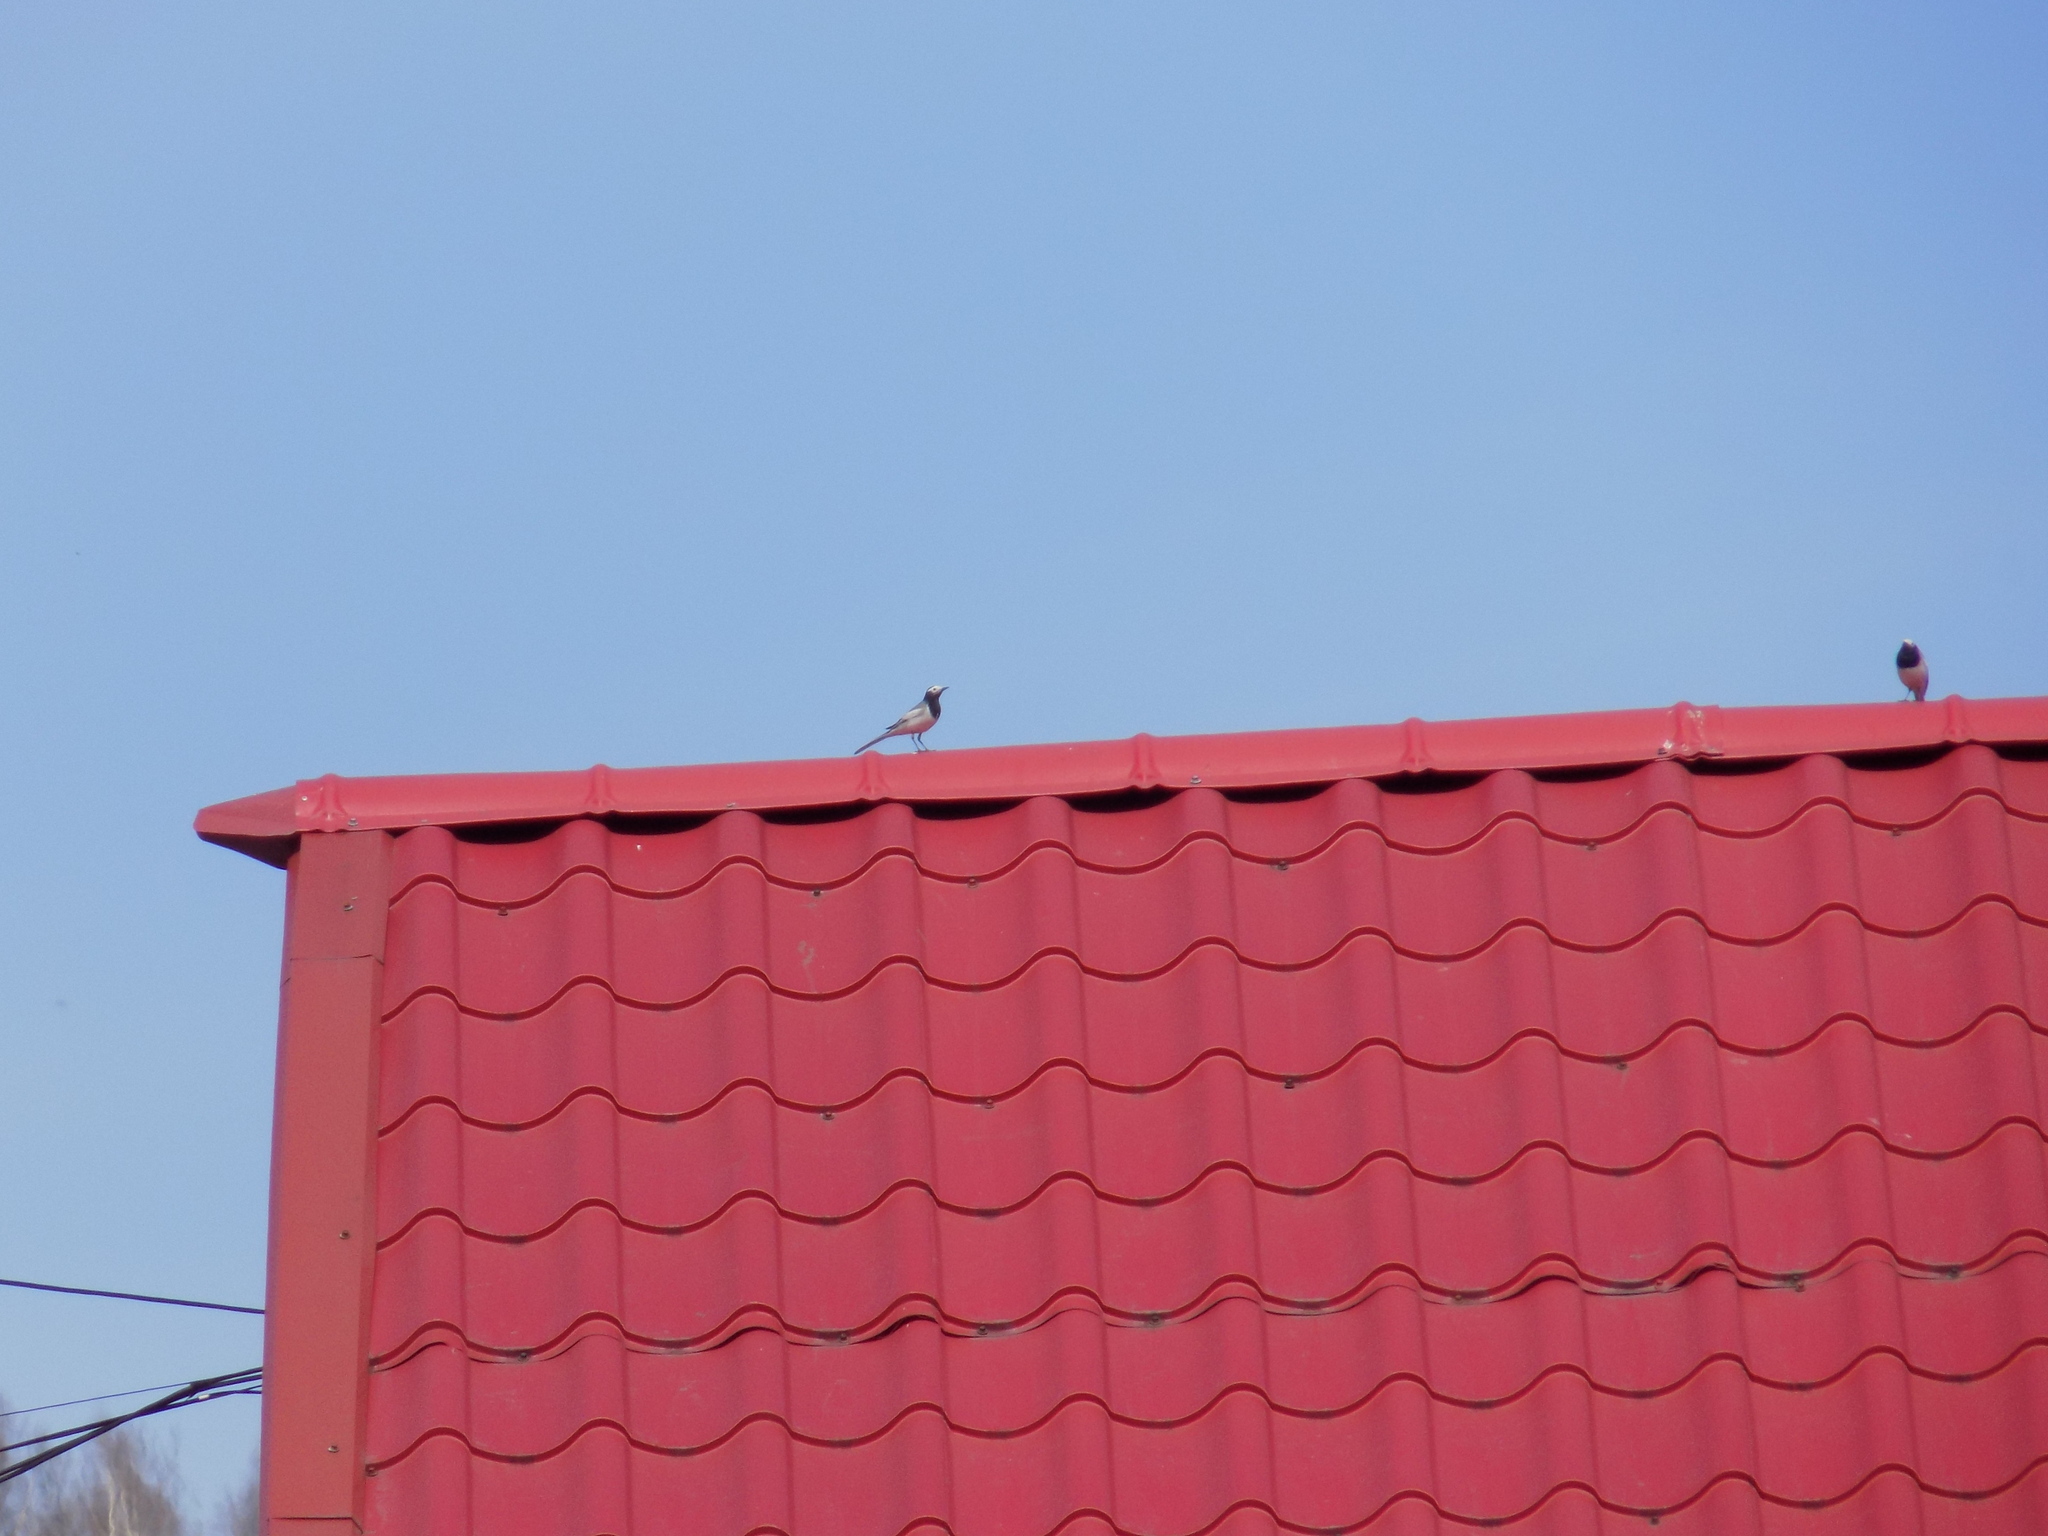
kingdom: Animalia
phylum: Chordata
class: Aves
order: Passeriformes
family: Motacillidae
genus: Motacilla
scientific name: Motacilla alba
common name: White wagtail
